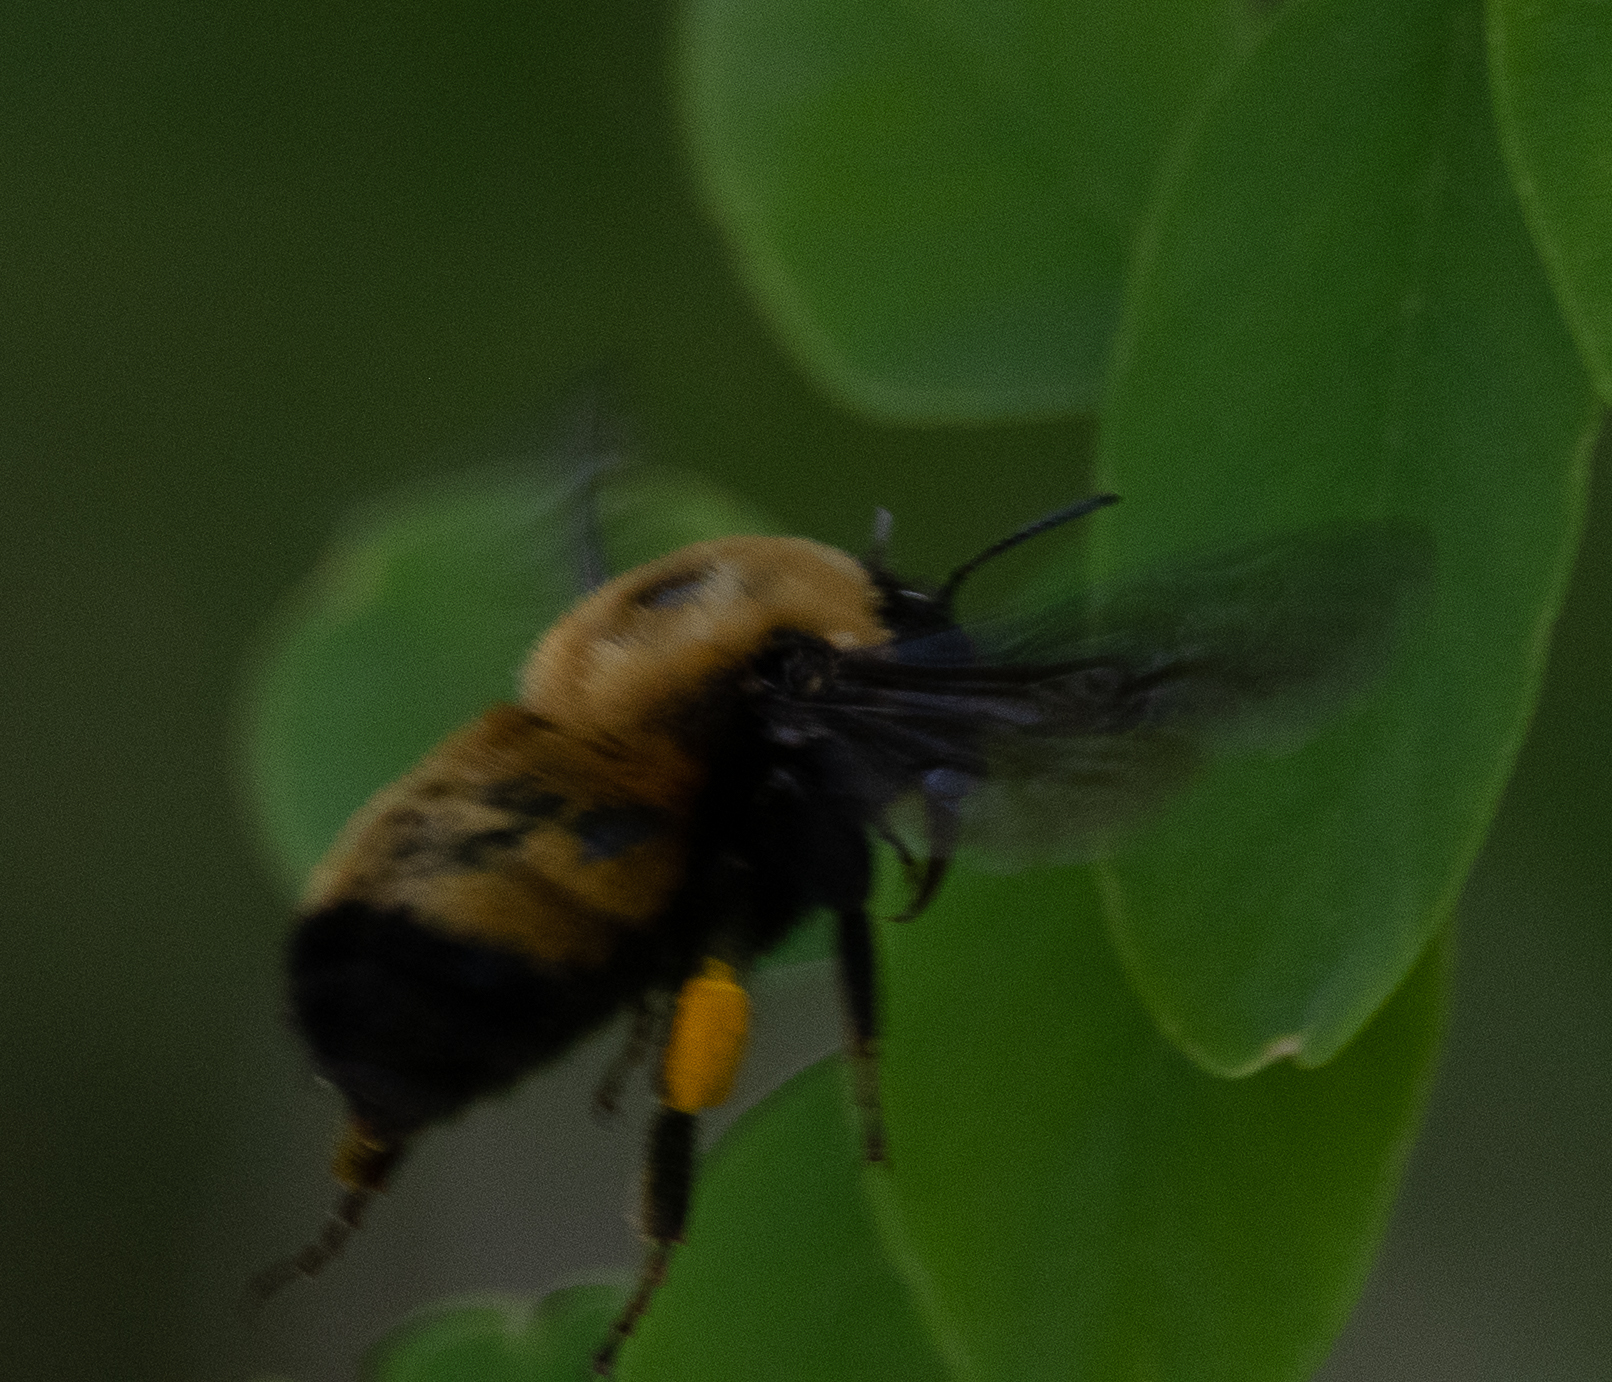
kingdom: Animalia
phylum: Arthropoda
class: Insecta
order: Hymenoptera
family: Apidae
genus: Bombus
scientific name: Bombus nevadensis
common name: Nevada bumble bee
